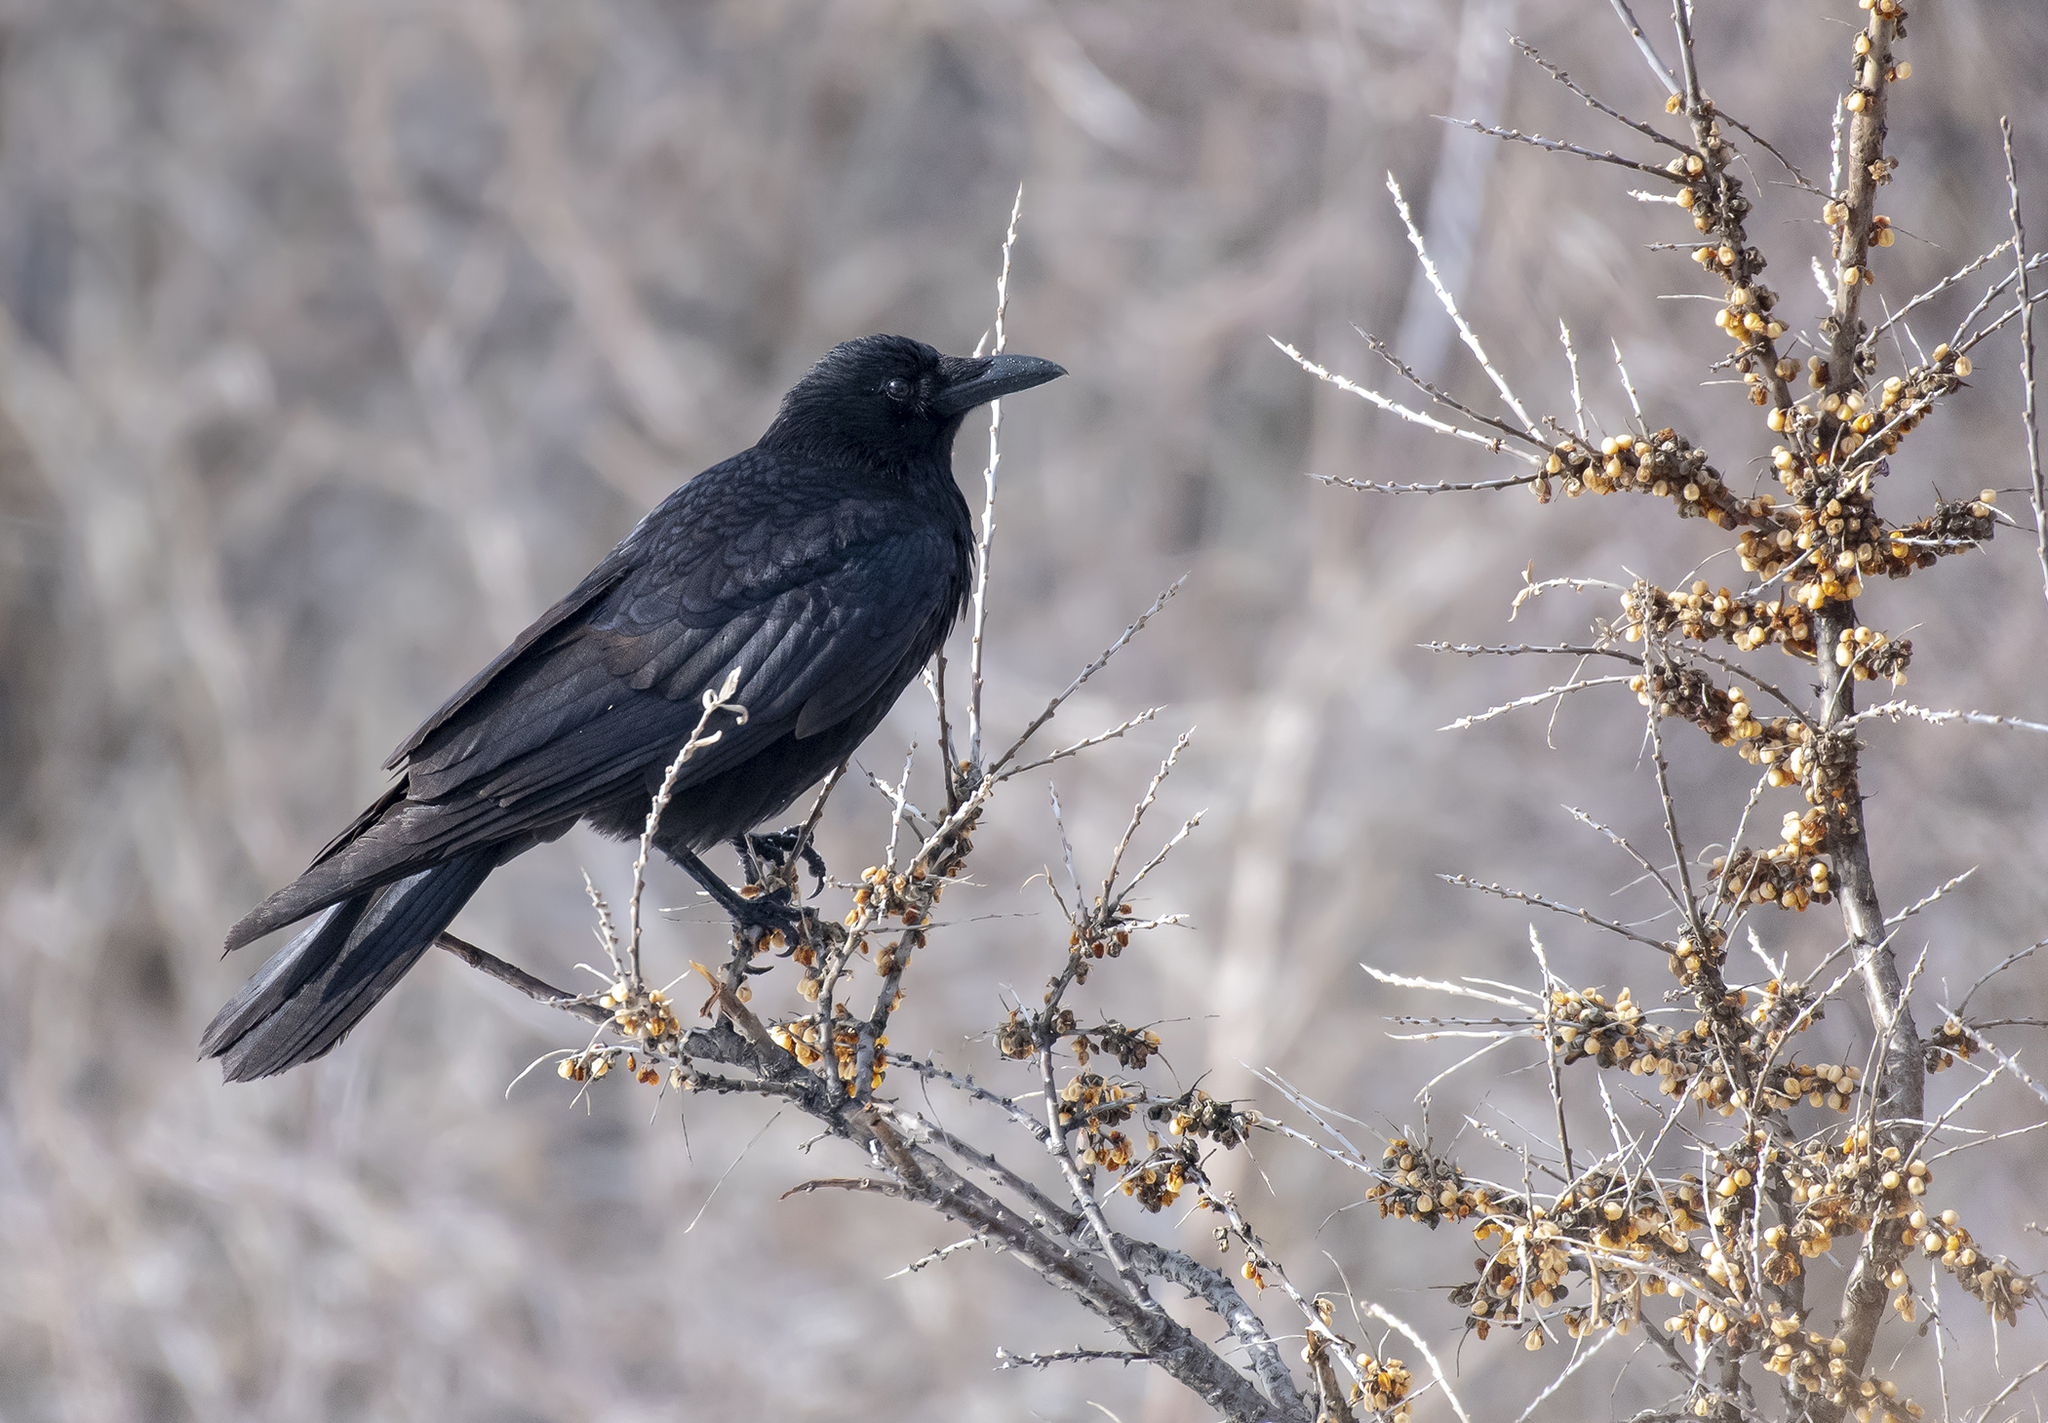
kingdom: Animalia
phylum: Chordata
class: Aves
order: Passeriformes
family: Corvidae
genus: Corvus
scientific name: Corvus corone
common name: Carrion crow
